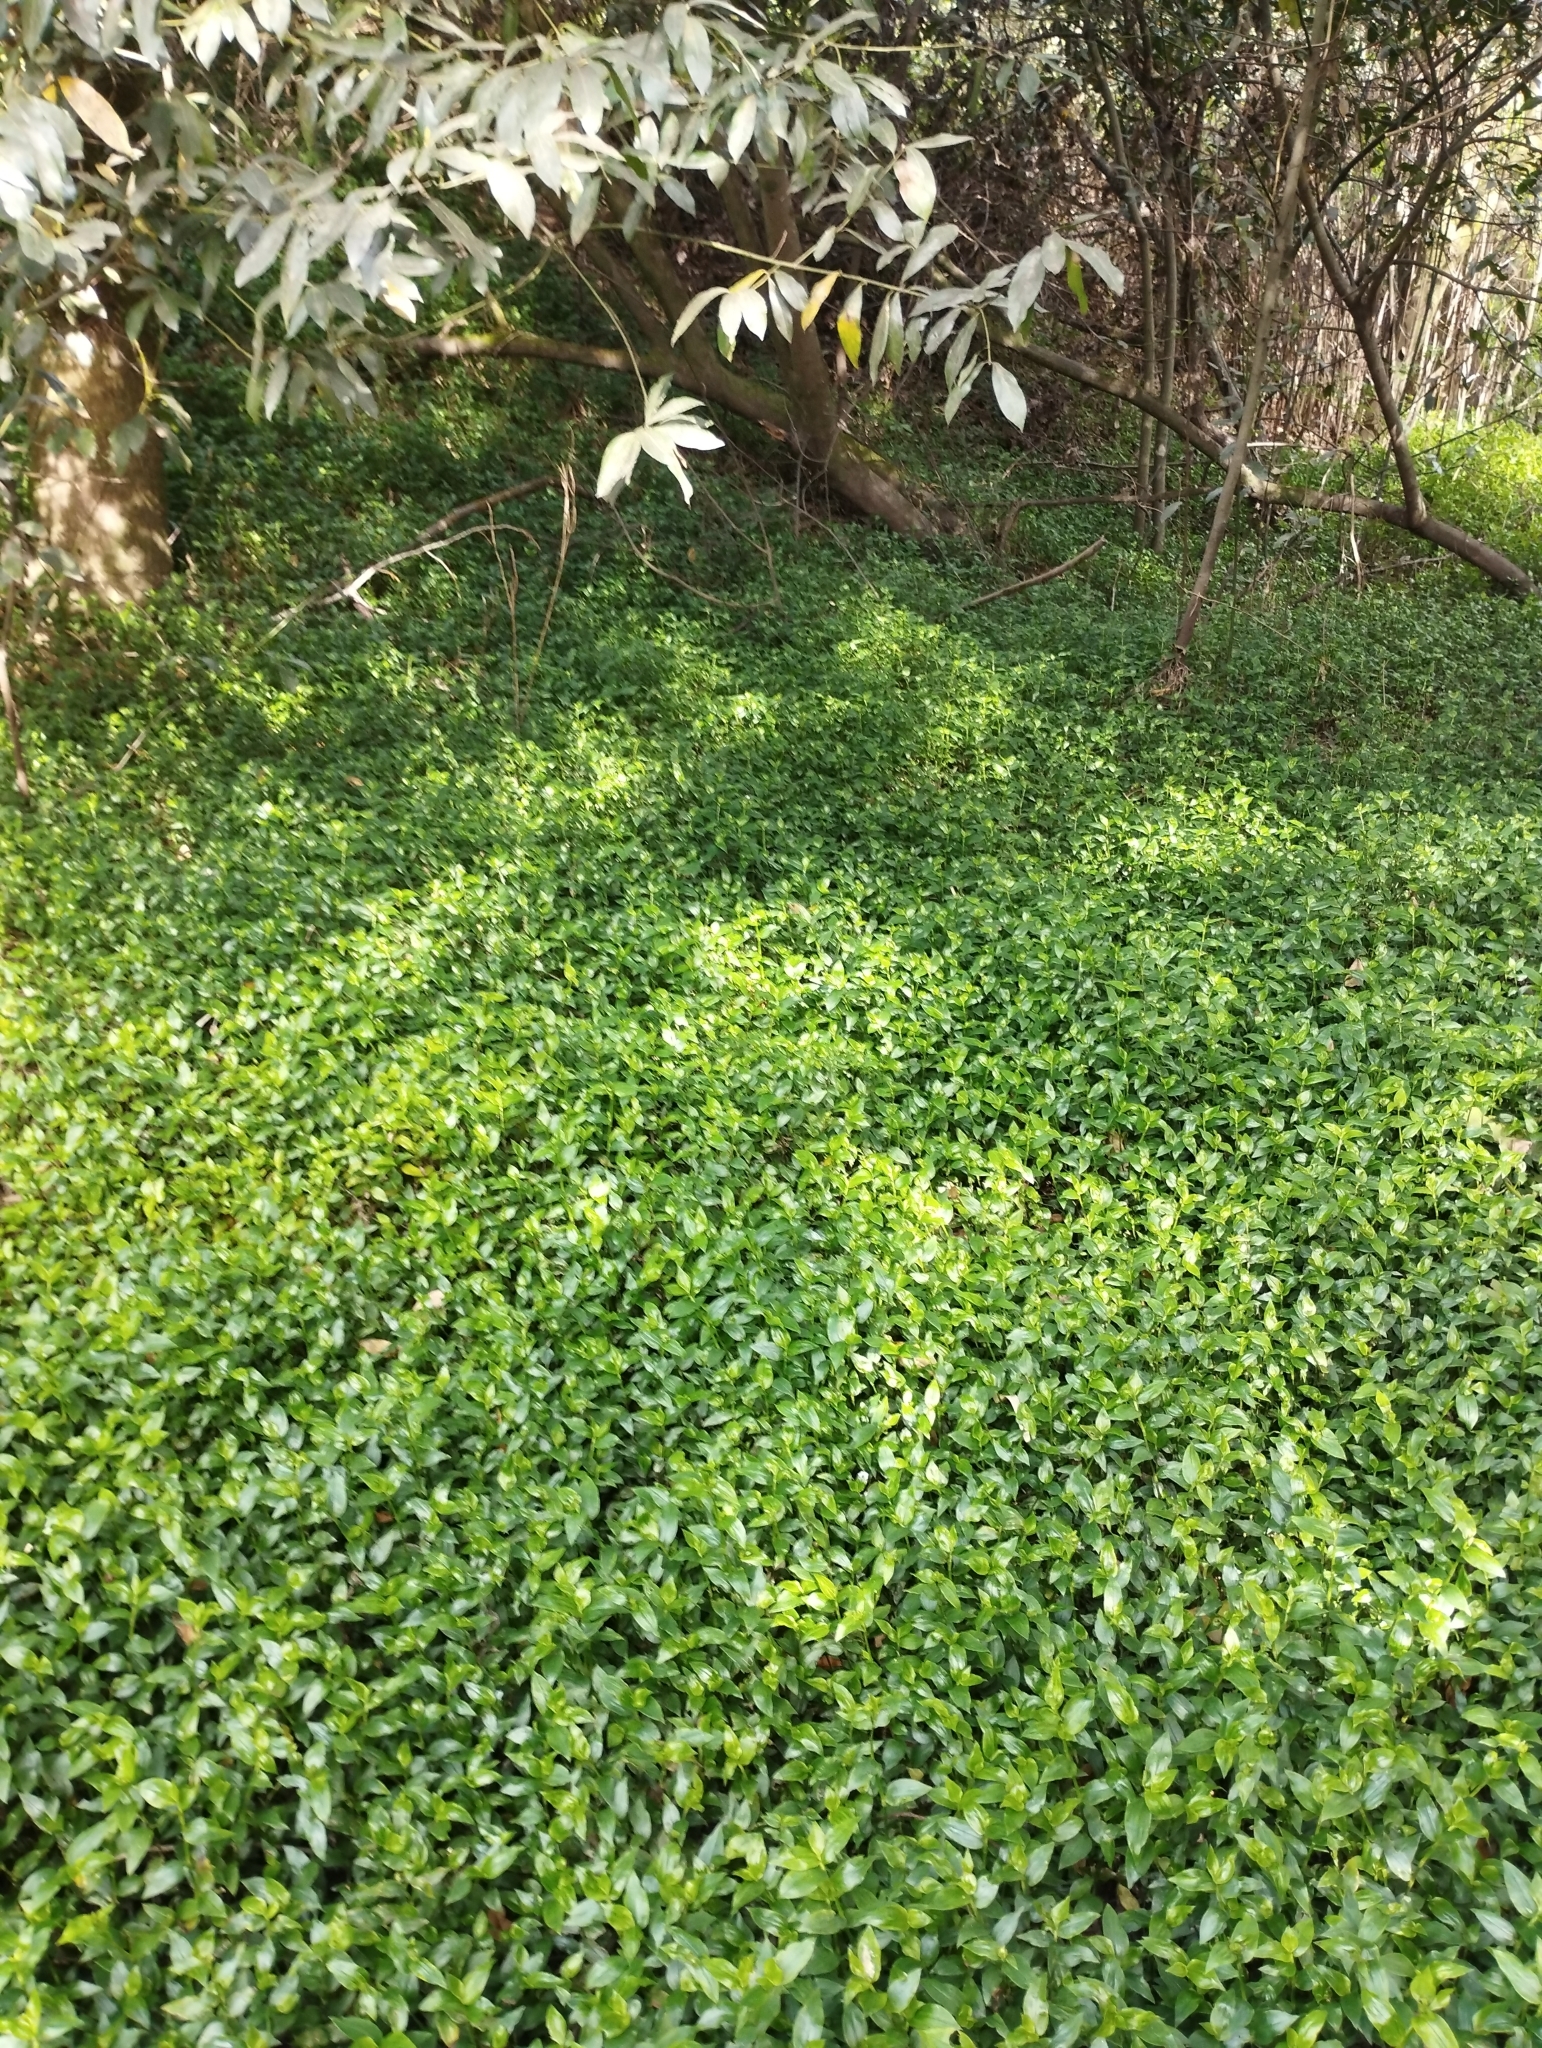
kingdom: Plantae
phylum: Tracheophyta
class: Liliopsida
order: Commelinales
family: Commelinaceae
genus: Tradescantia
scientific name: Tradescantia fluminensis
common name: Wandering-jew
